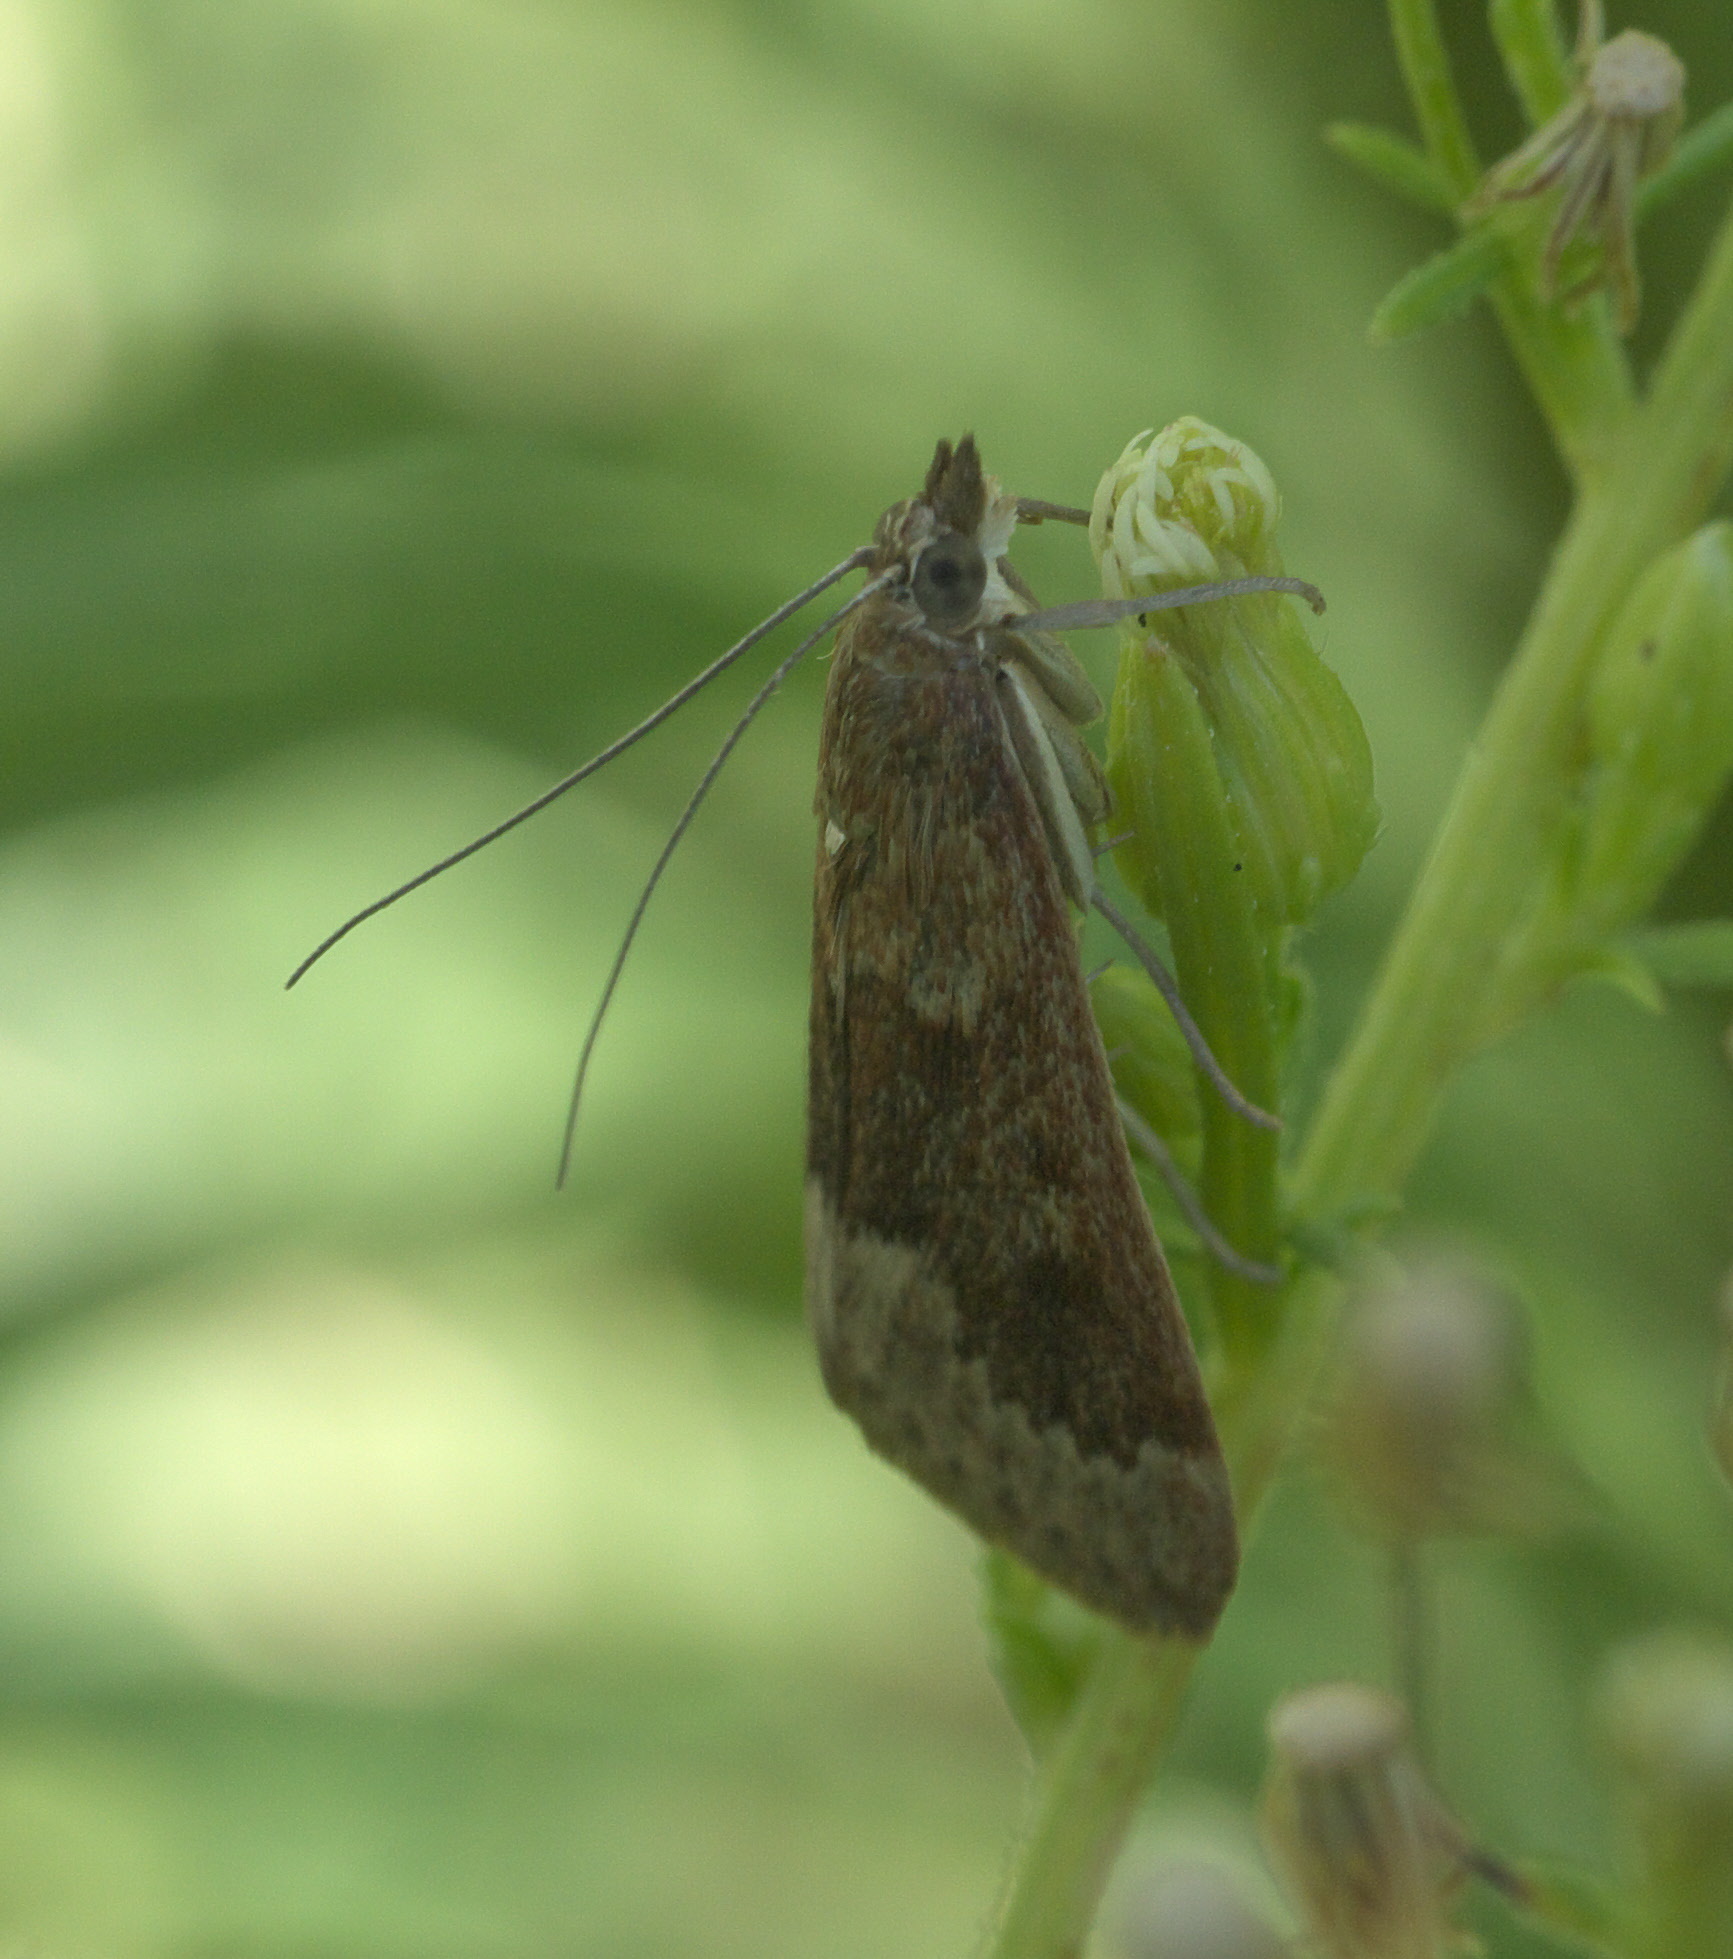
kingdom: Animalia
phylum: Arthropoda
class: Insecta
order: Lepidoptera
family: Crambidae
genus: Achyra
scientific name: Achyra rantalis
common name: Garden webworm
